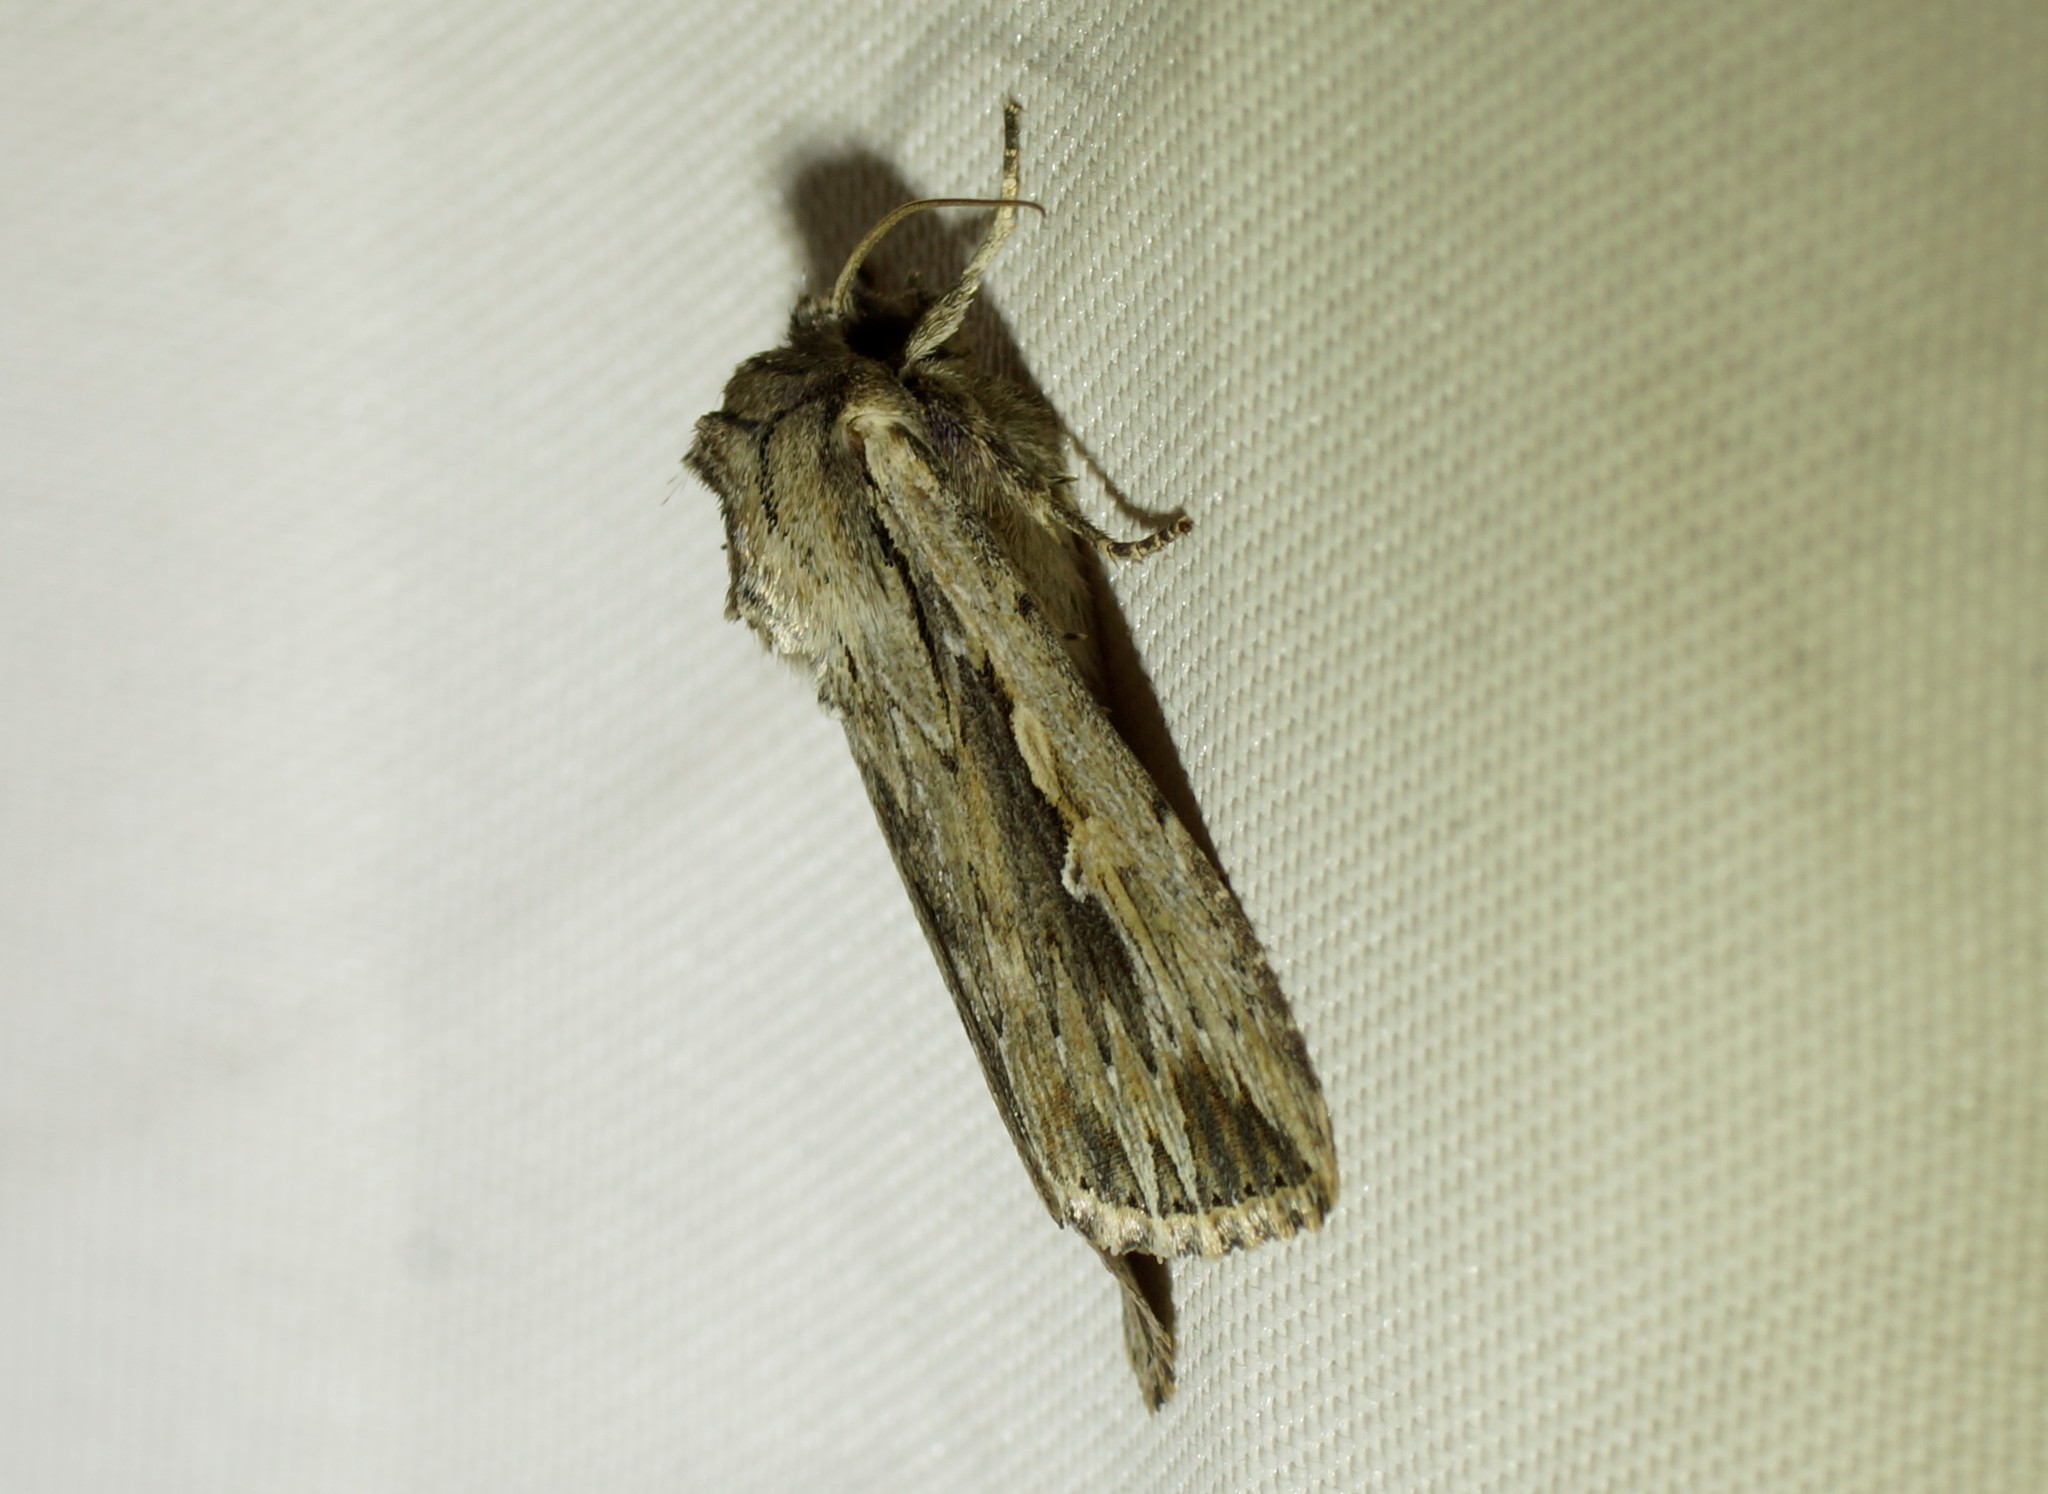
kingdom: Animalia
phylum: Arthropoda
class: Insecta
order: Lepidoptera
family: Noctuidae
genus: Persectania
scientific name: Persectania ewingii
